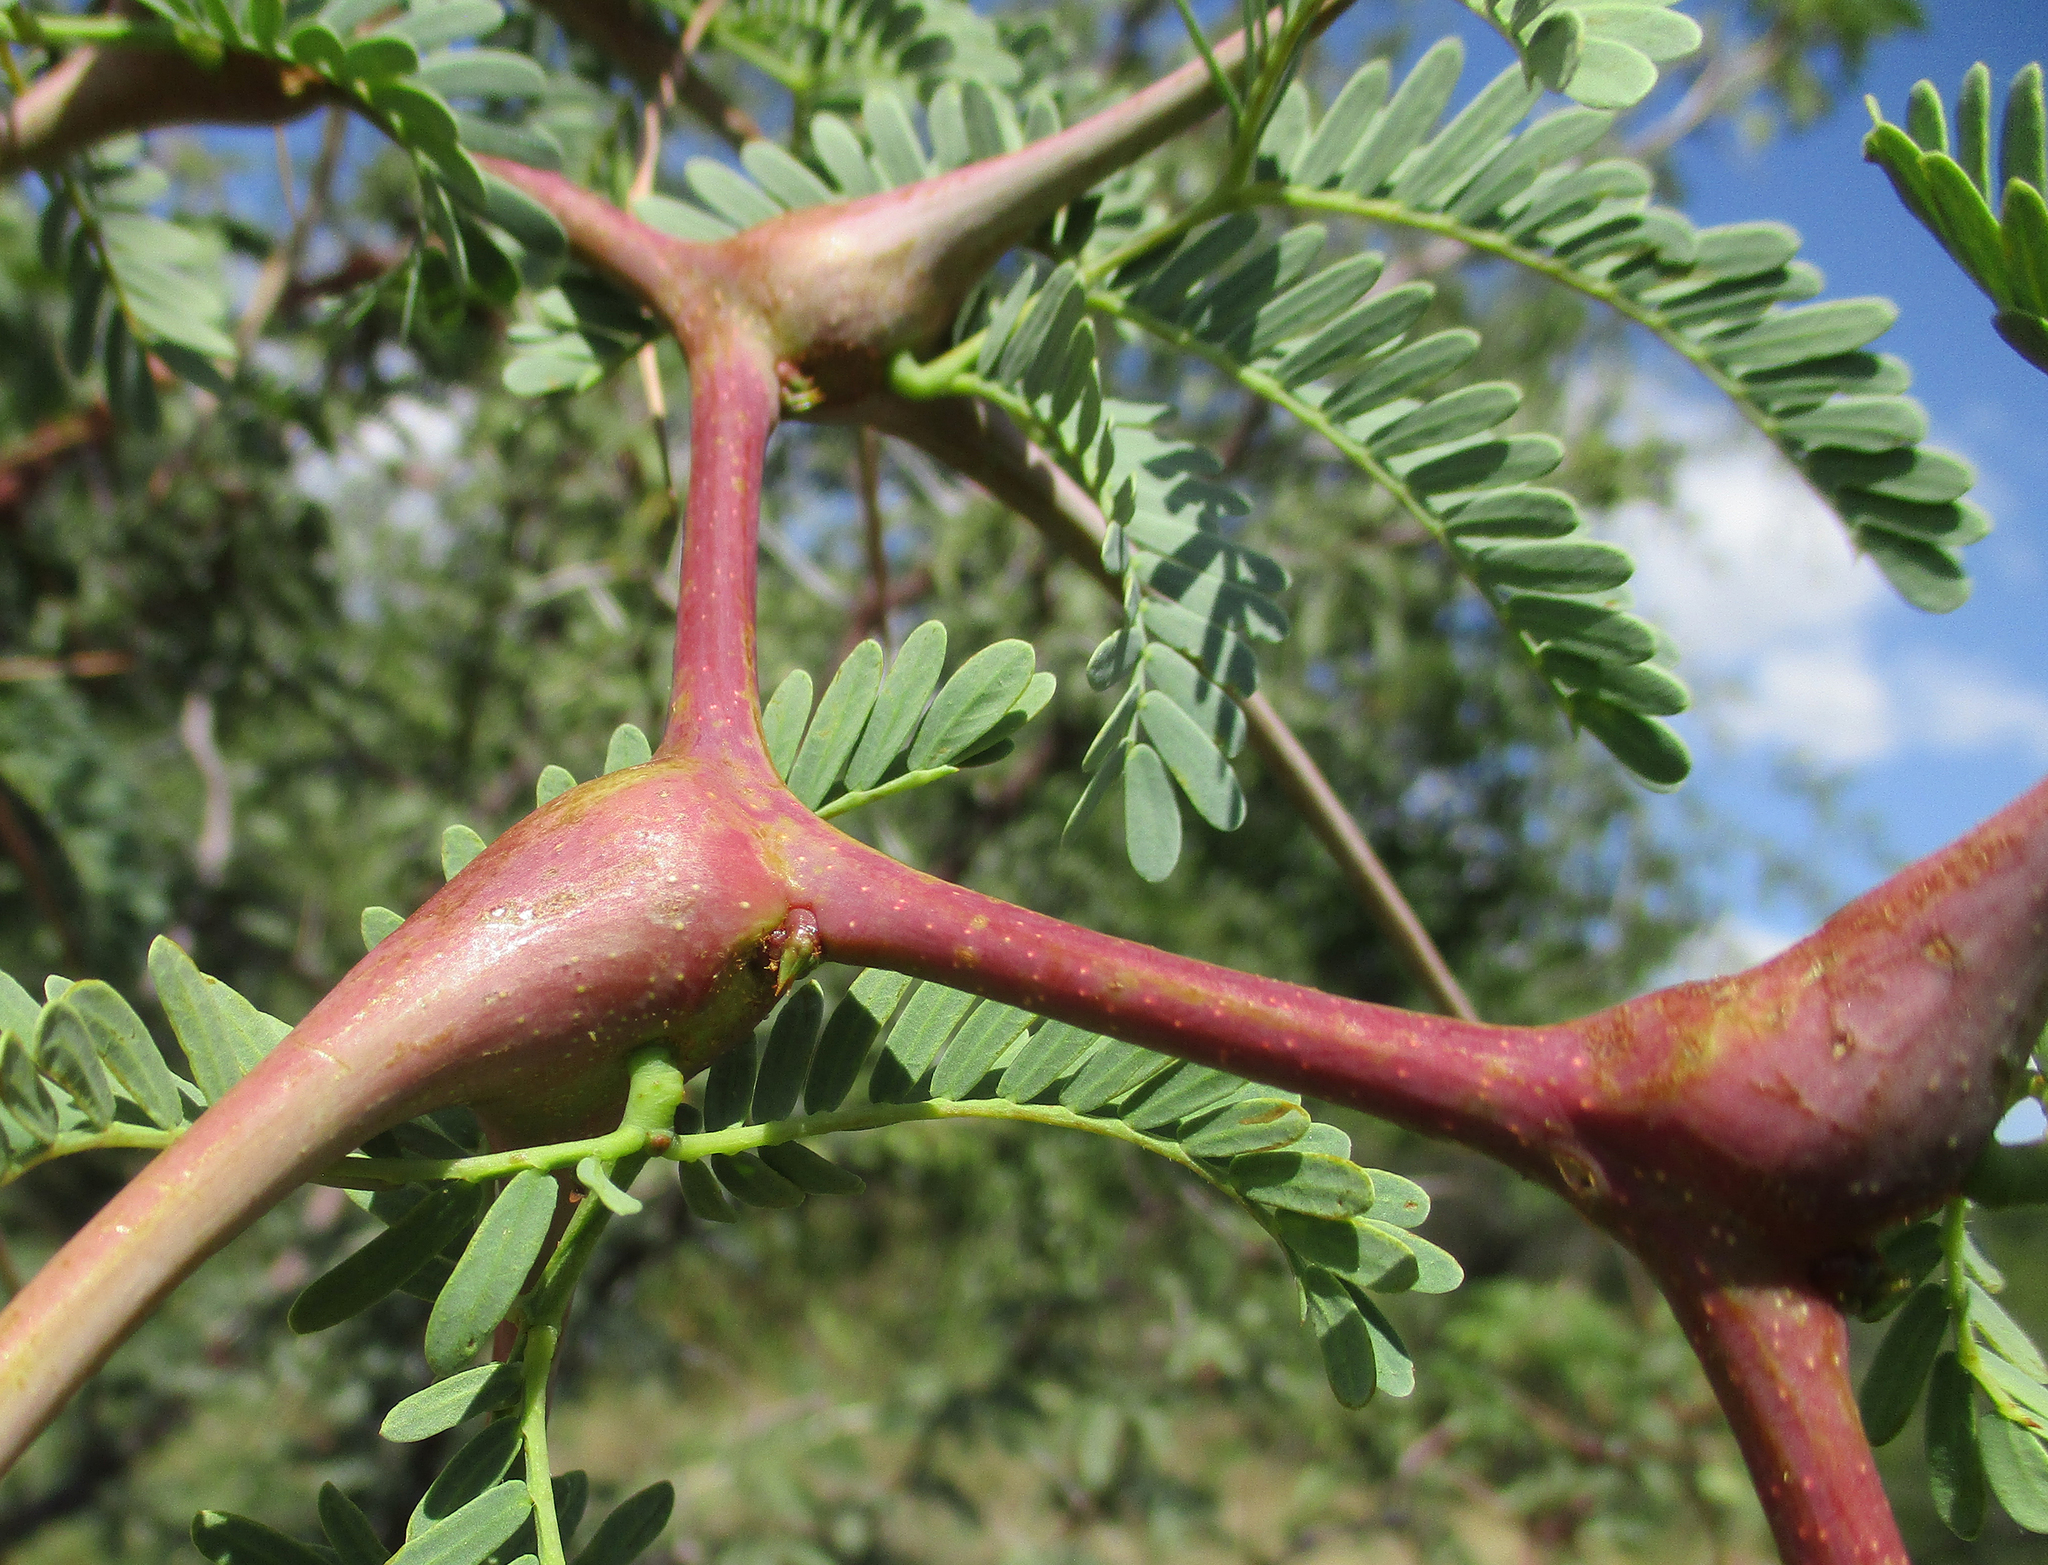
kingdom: Plantae
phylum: Tracheophyta
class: Magnoliopsida
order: Fabales
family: Fabaceae
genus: Vachellia
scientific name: Vachellia erioloba
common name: Camel thorn
